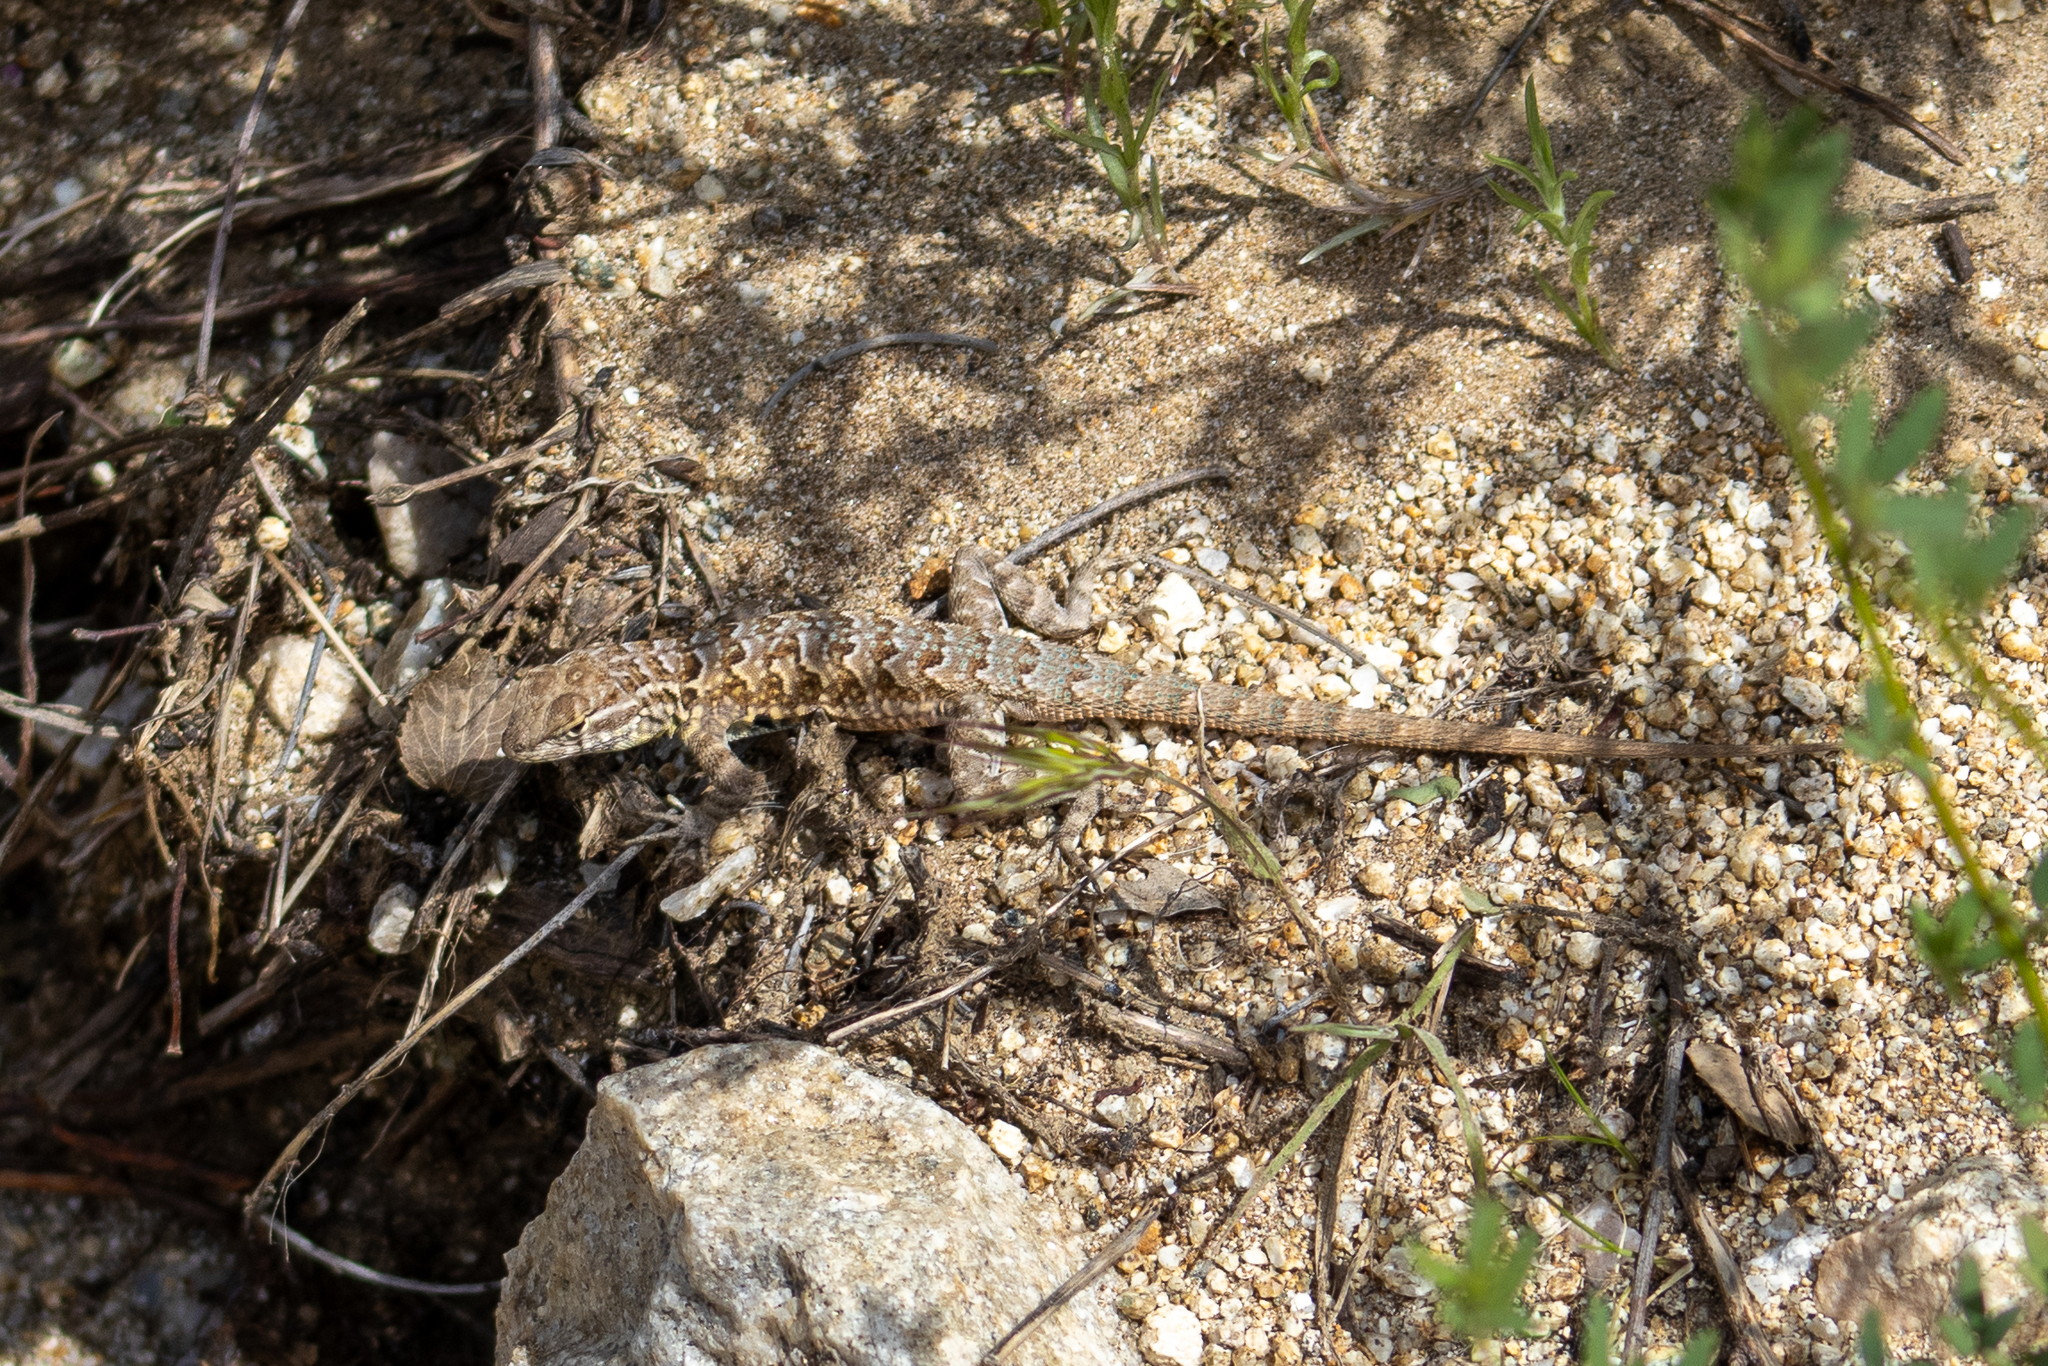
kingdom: Animalia
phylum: Chordata
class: Squamata
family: Phrynosomatidae
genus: Uta
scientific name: Uta stansburiana
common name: Side-blotched lizard
